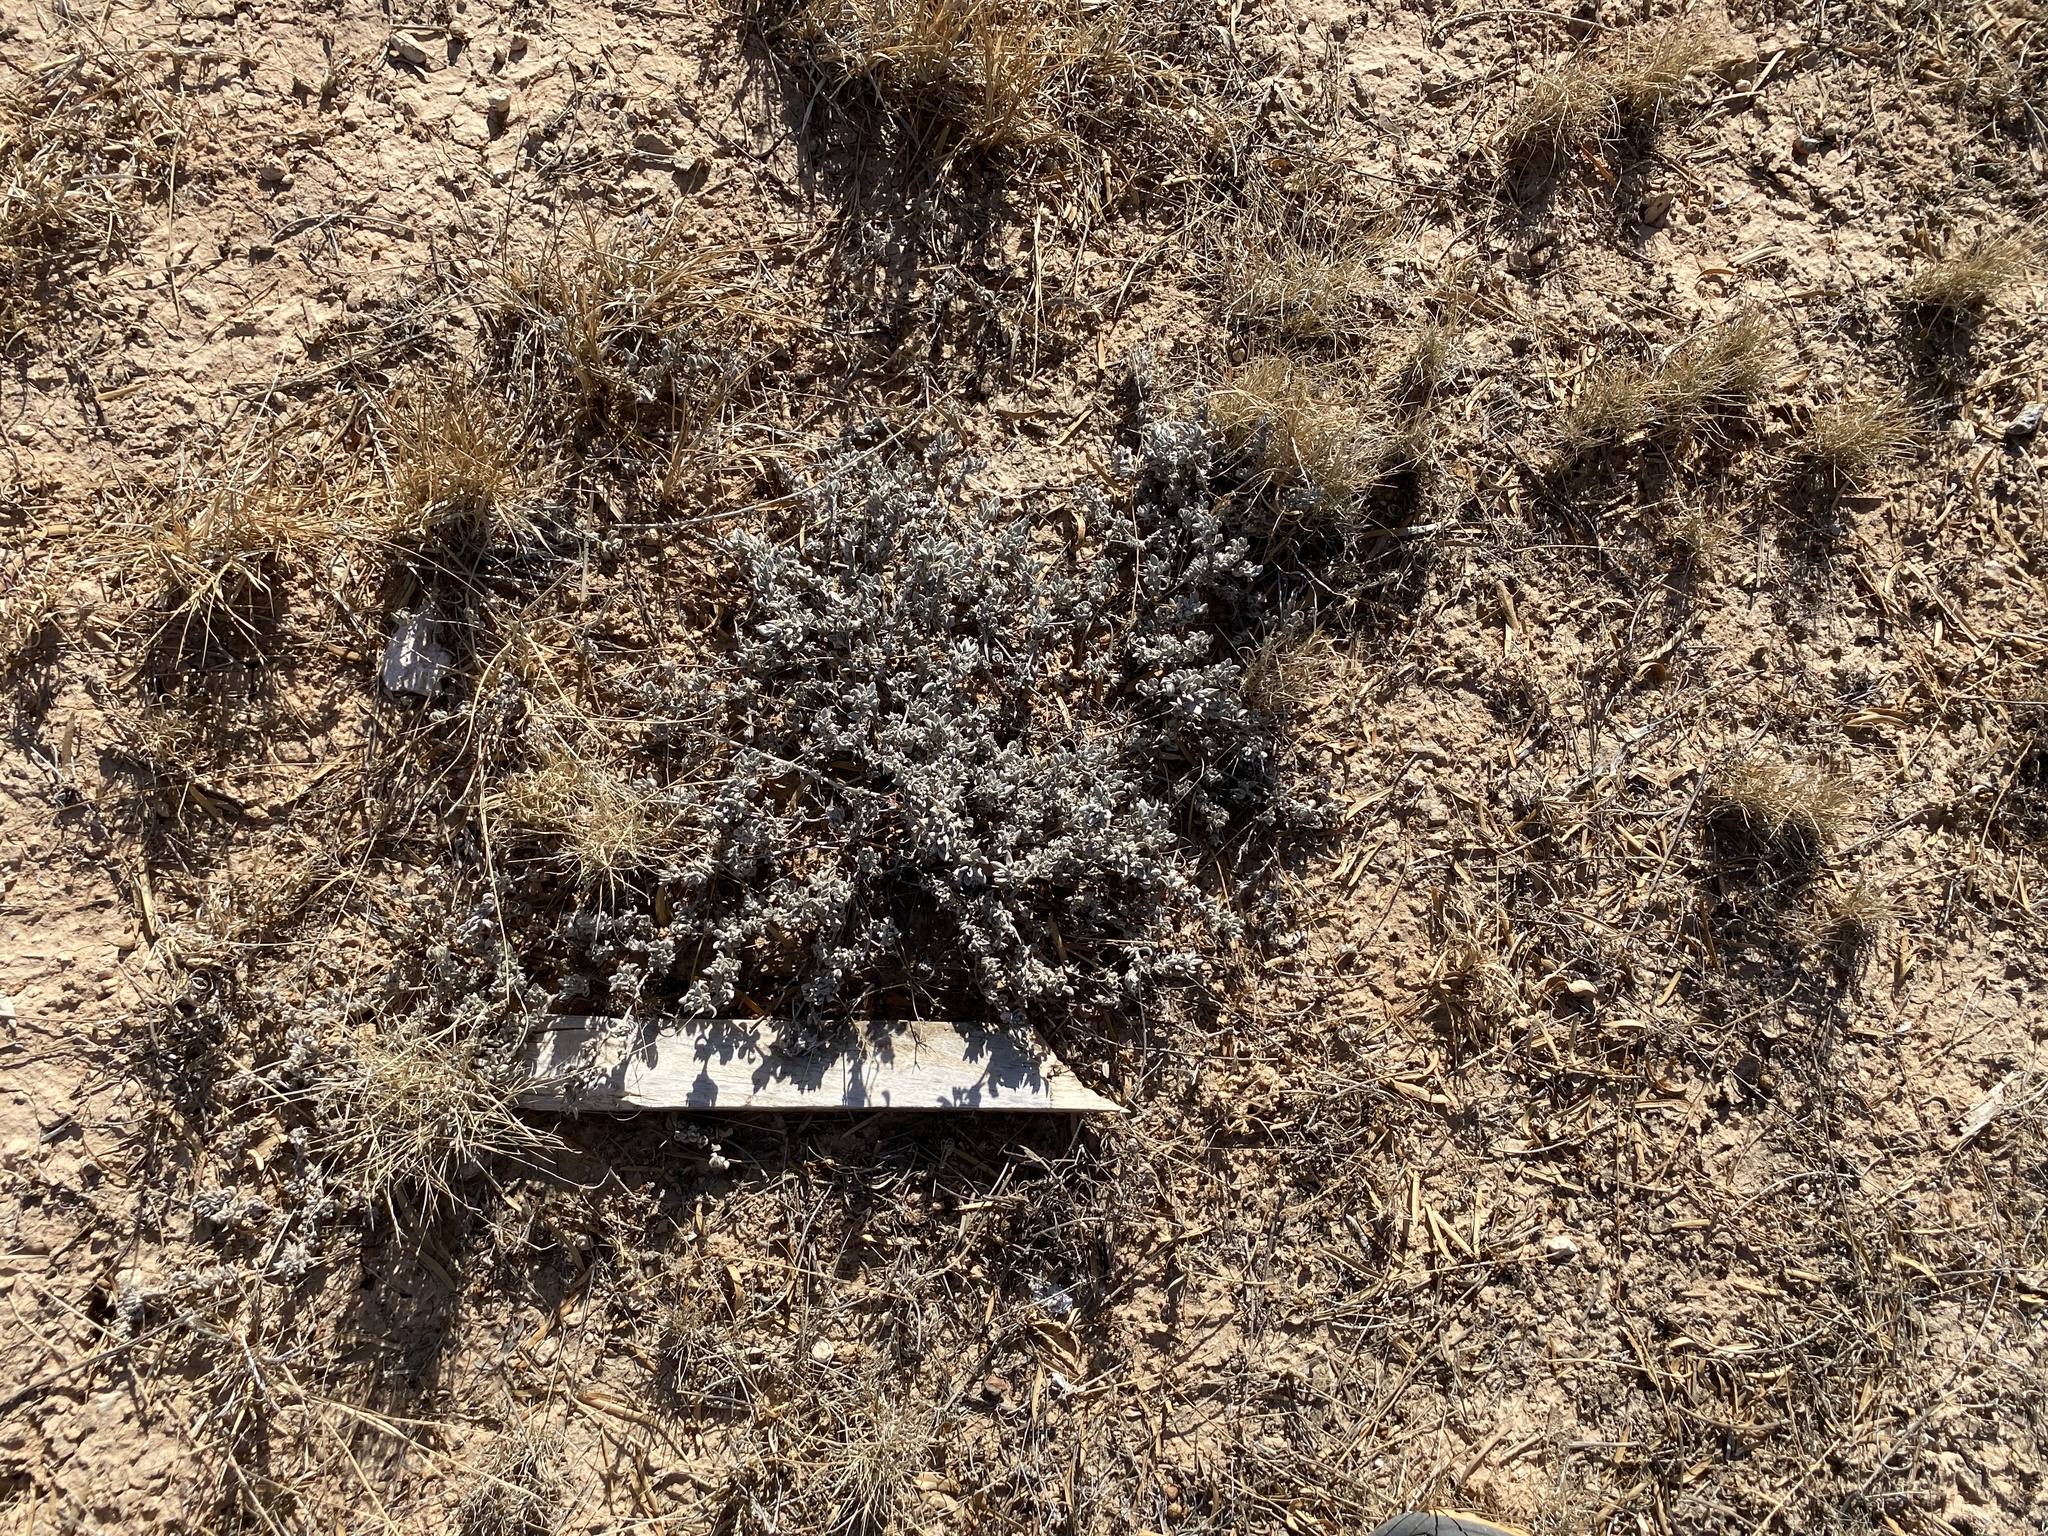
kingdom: Plantae
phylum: Tracheophyta
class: Magnoliopsida
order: Boraginales
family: Ehretiaceae
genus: Tiquilia
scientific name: Tiquilia canescens
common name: Hairy tiquilia
